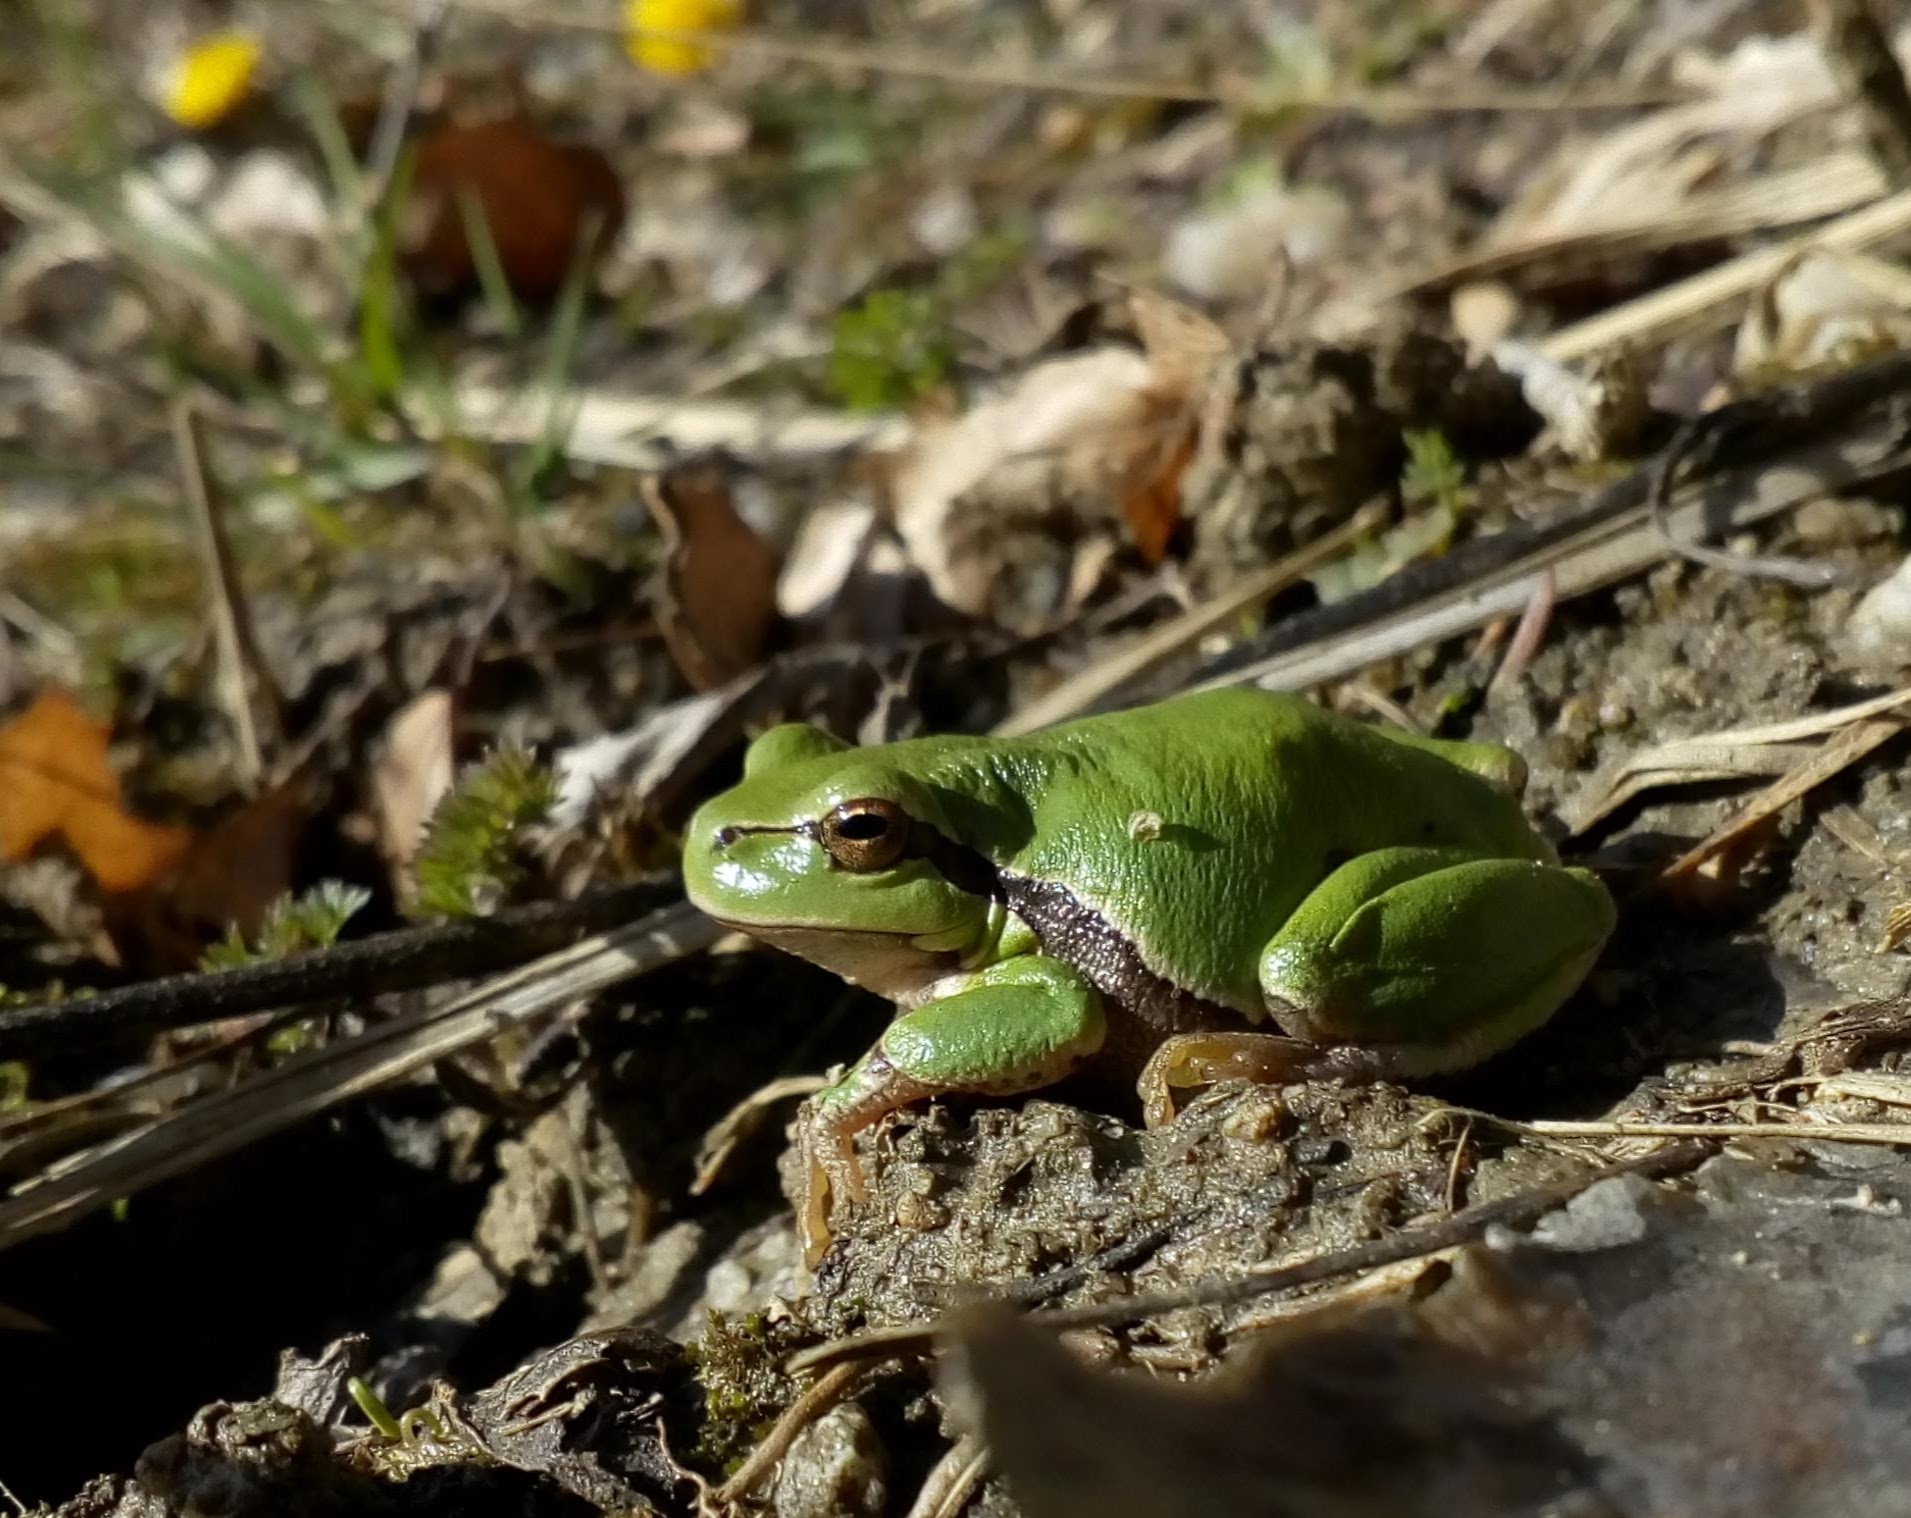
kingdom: Animalia
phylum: Chordata
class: Amphibia
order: Anura
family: Hylidae
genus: Hyla
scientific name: Hyla arborea
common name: Common tree frog
